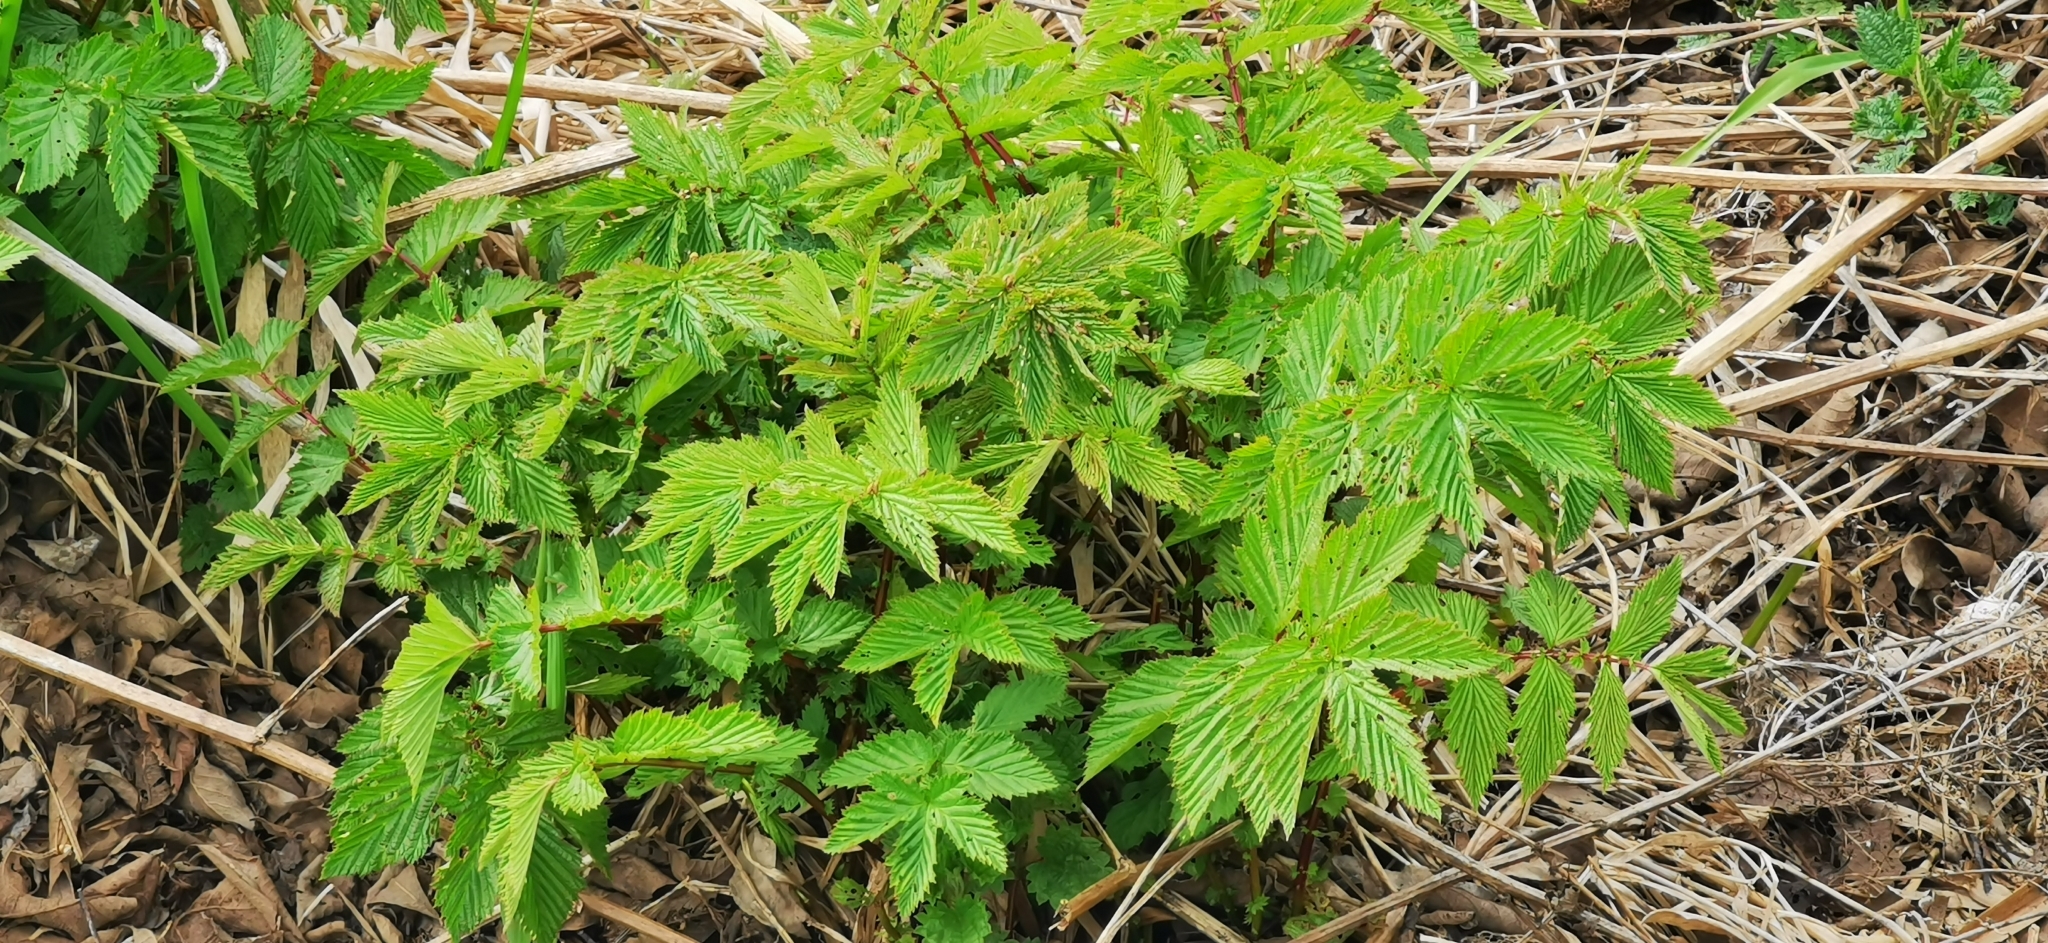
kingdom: Plantae
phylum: Tracheophyta
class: Magnoliopsida
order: Rosales
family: Rosaceae
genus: Filipendula
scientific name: Filipendula ulmaria
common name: Meadowsweet
